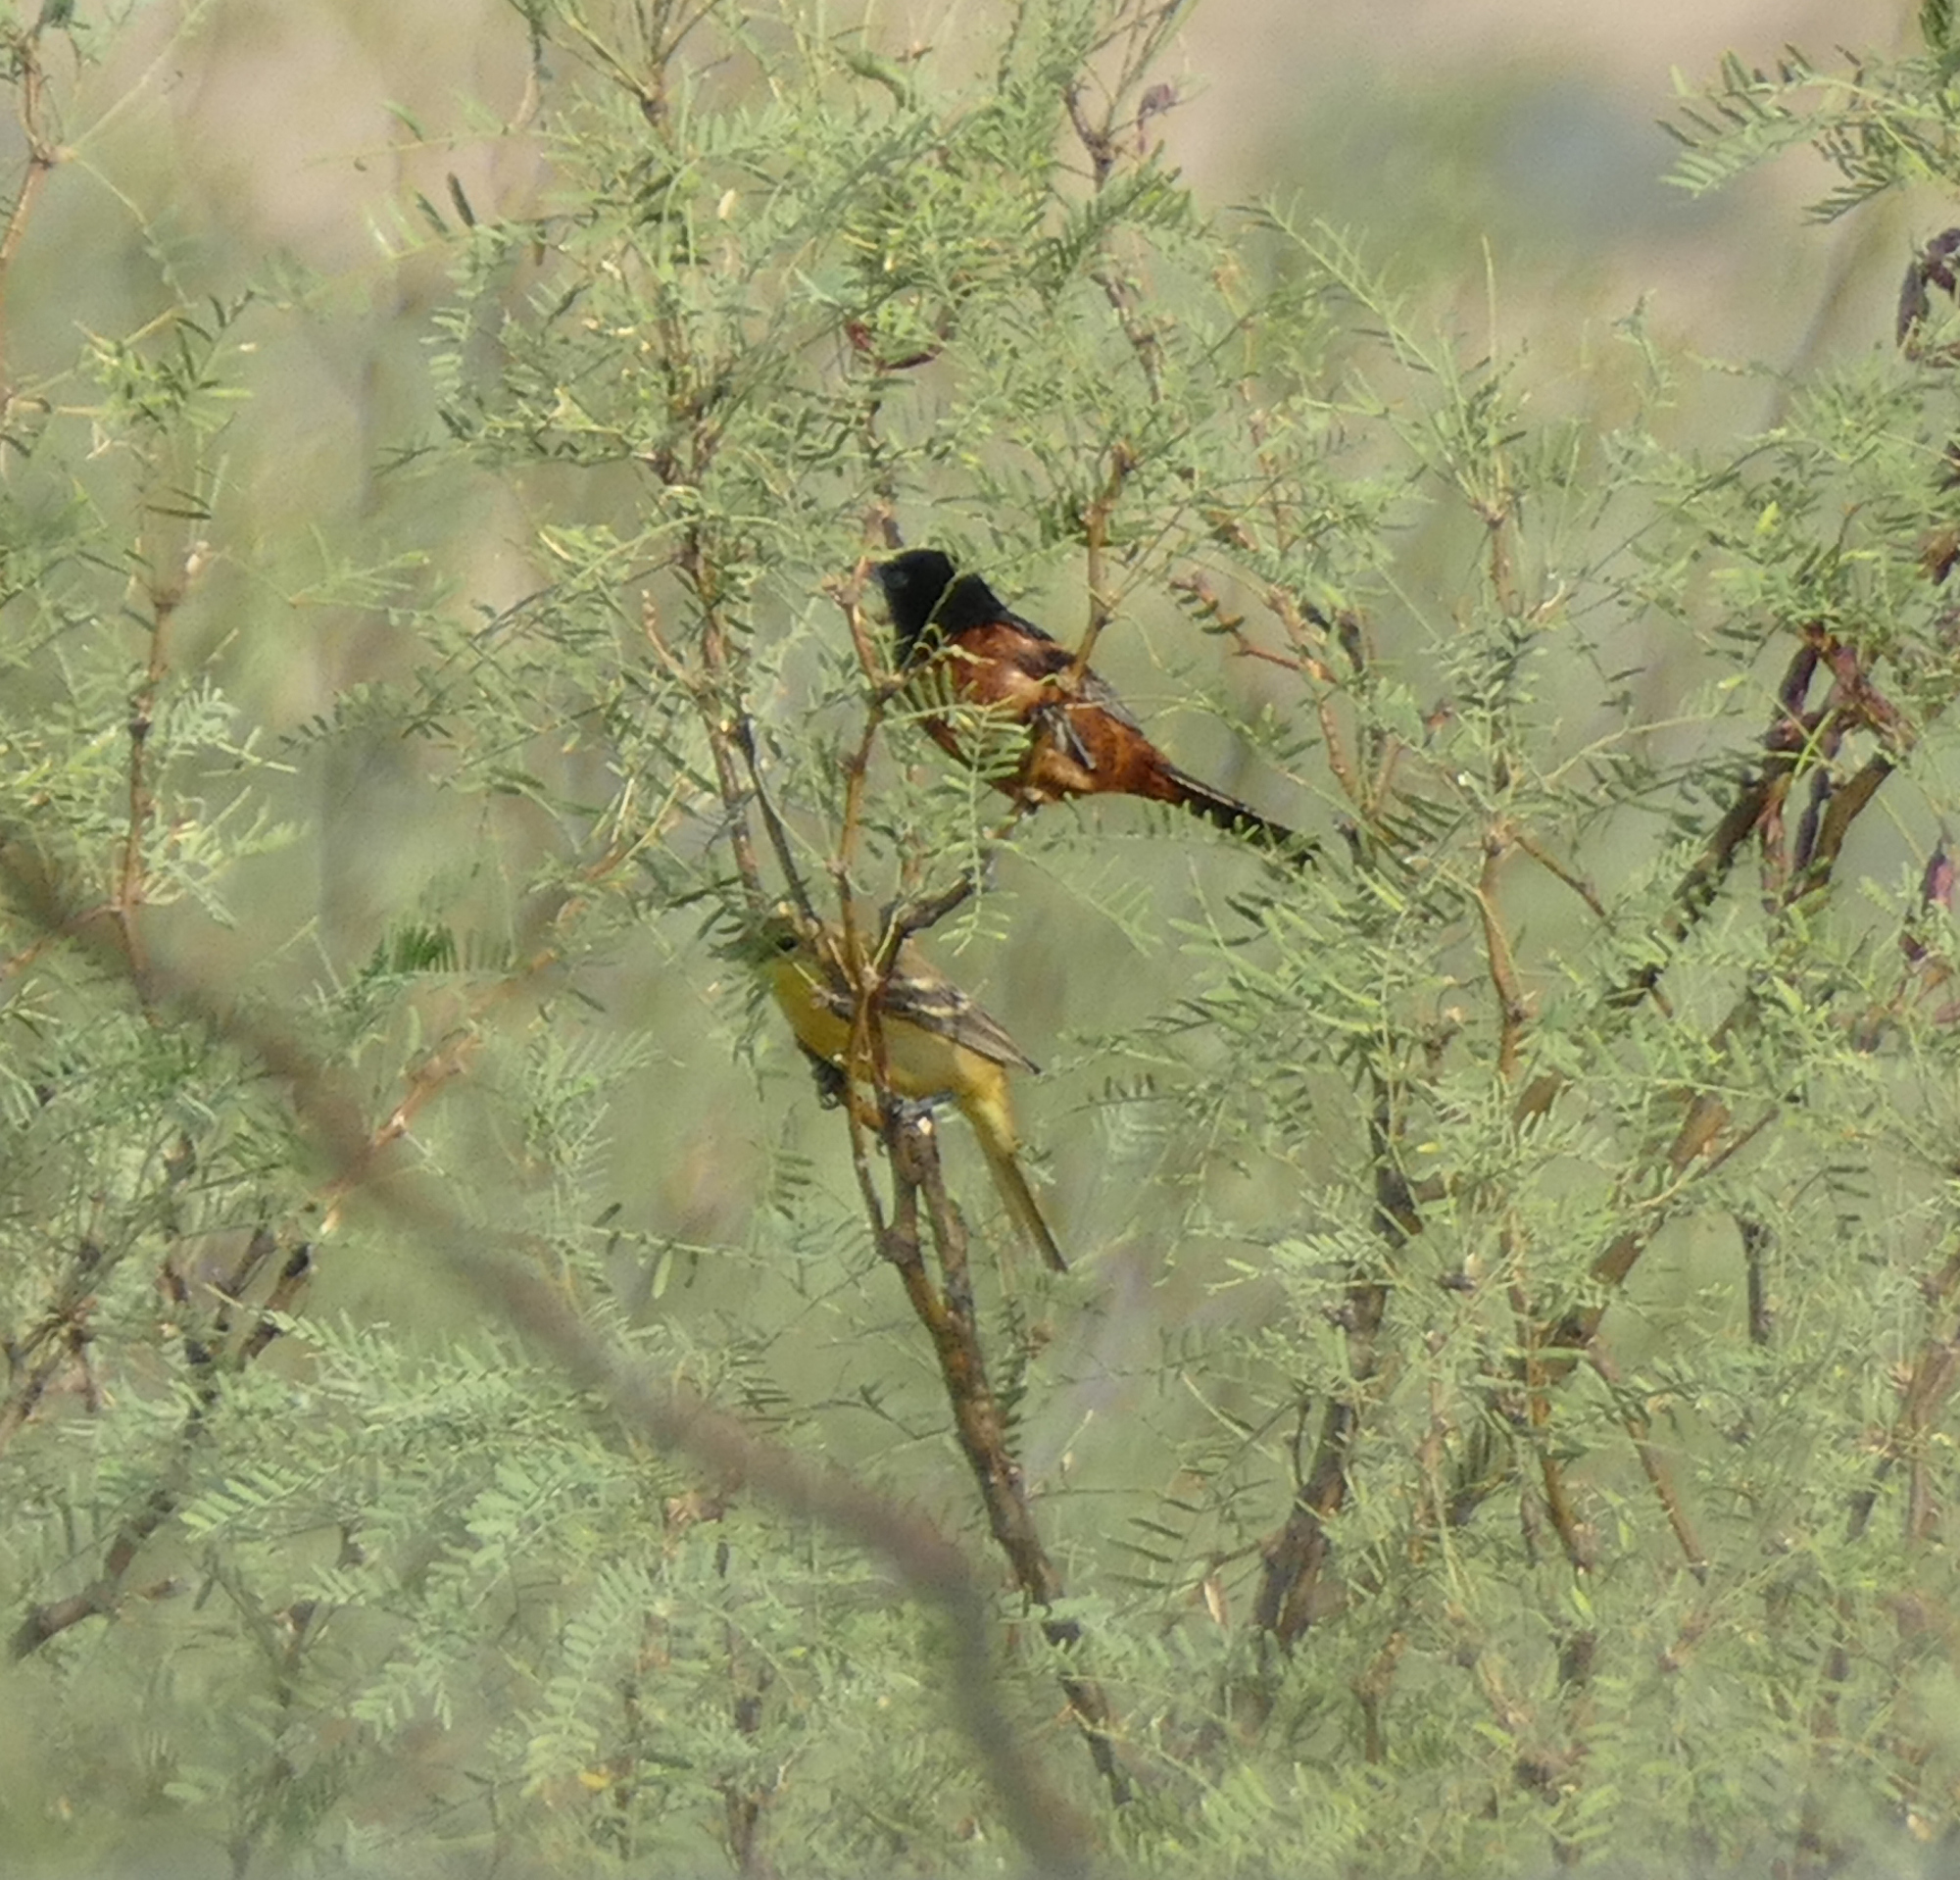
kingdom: Animalia
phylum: Chordata
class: Aves
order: Passeriformes
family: Icteridae
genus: Icterus
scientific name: Icterus spurius
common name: Orchard oriole
